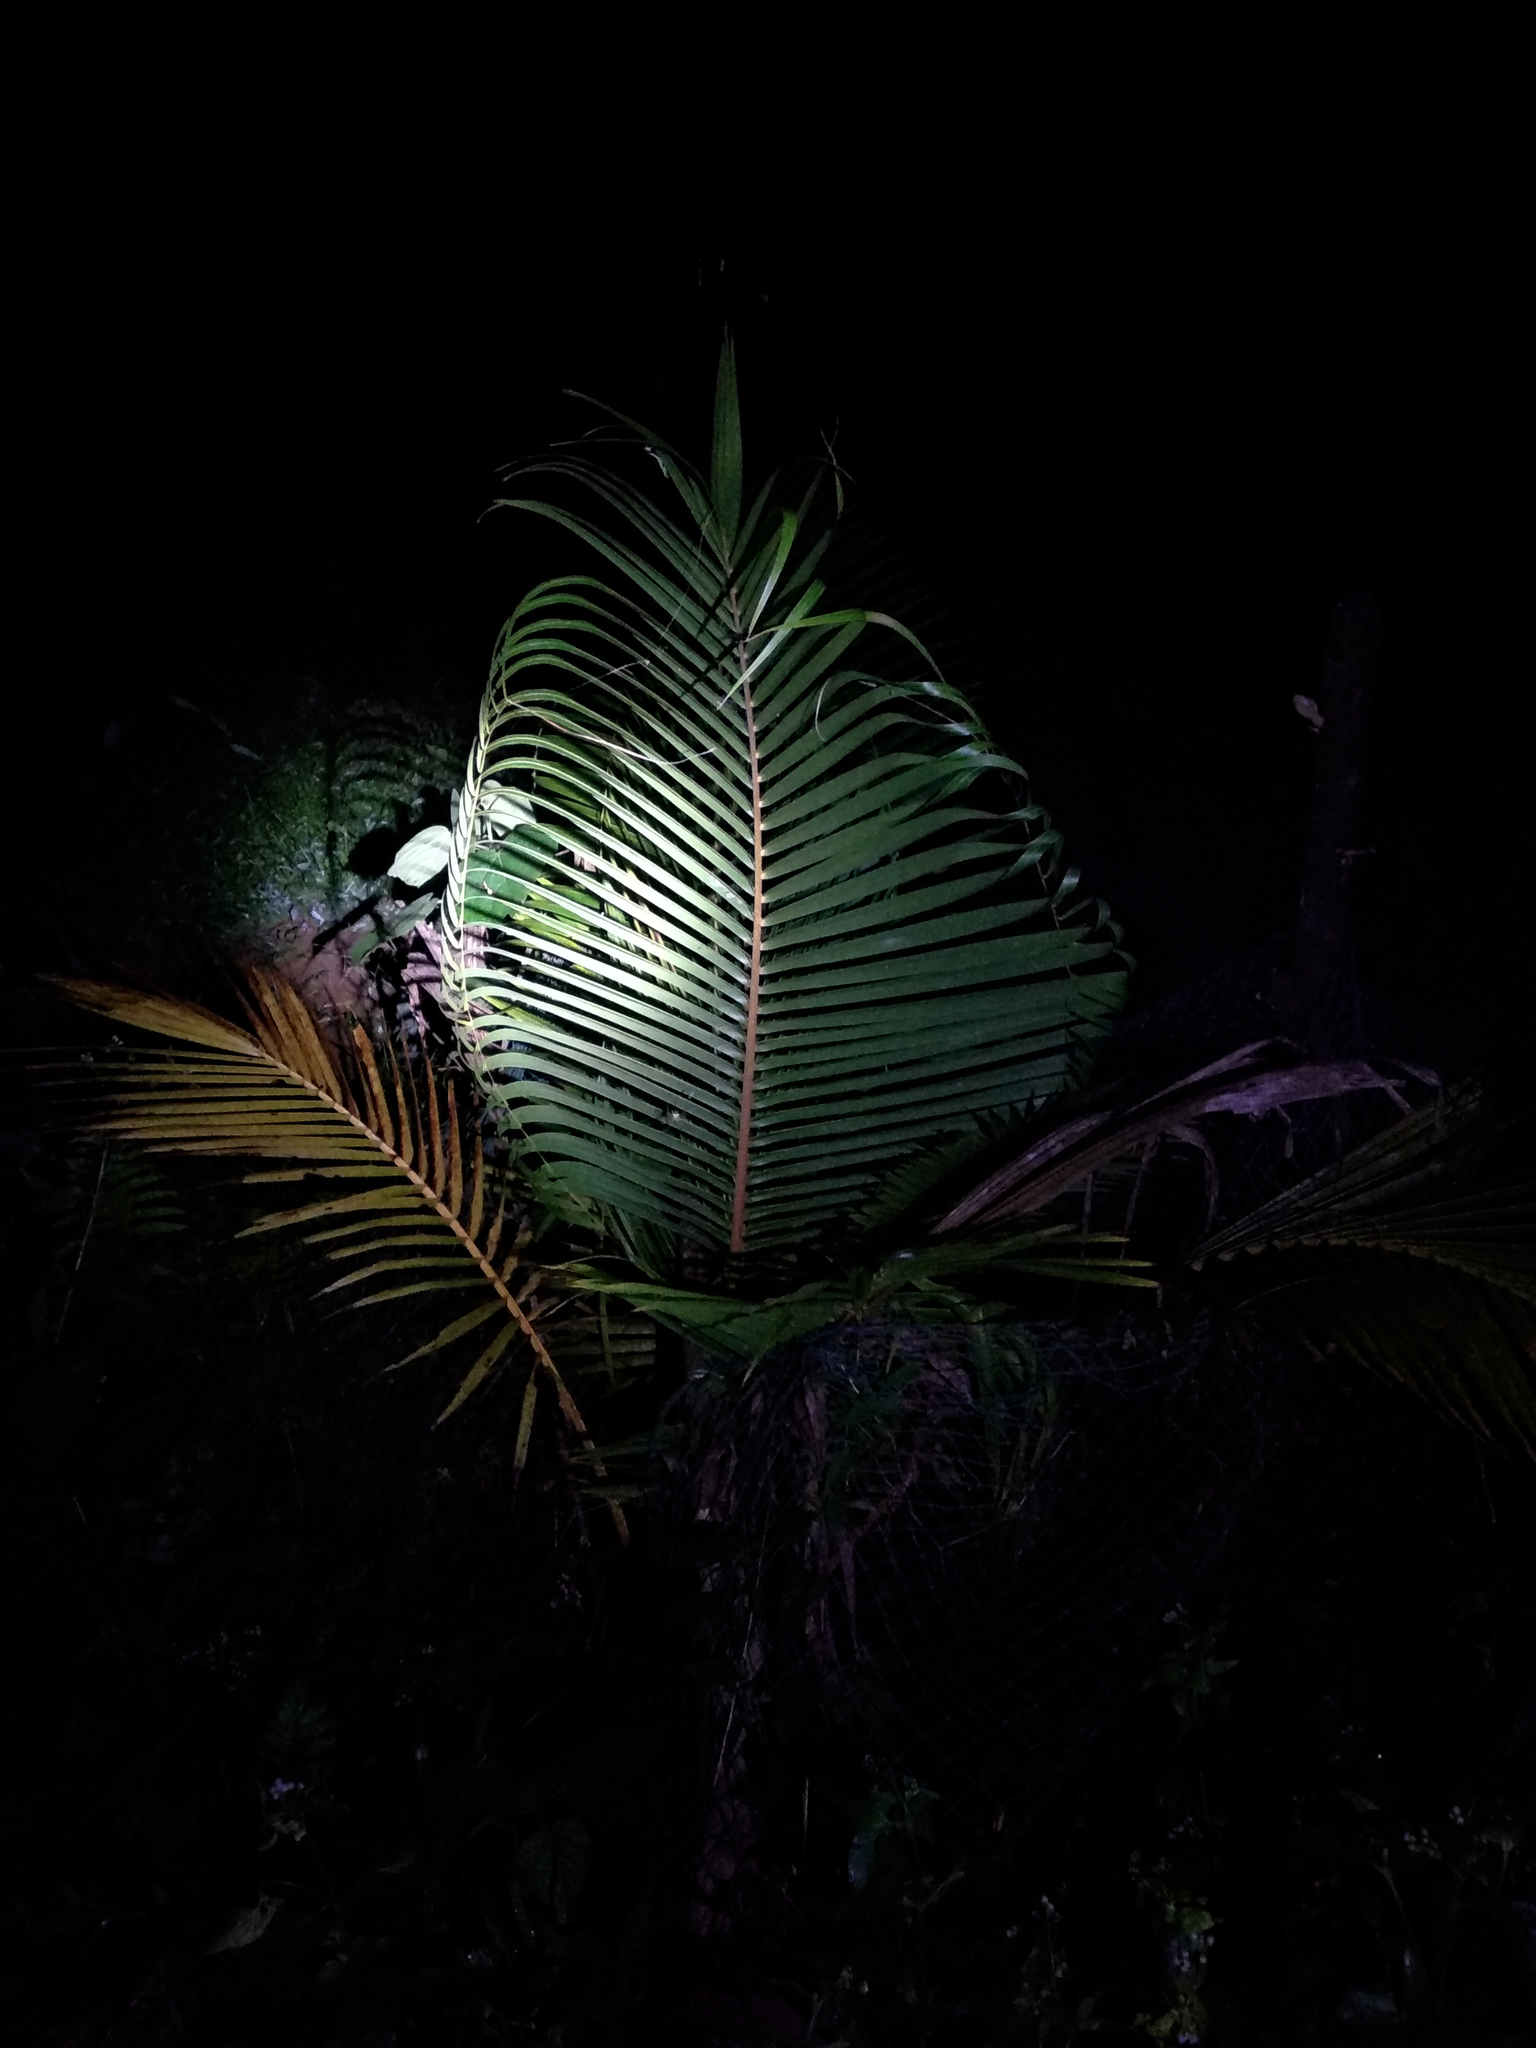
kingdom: Plantae
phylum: Tracheophyta
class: Liliopsida
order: Arecales
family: Arecaceae
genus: Cocos
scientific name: Cocos nucifera
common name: Coconut palm
